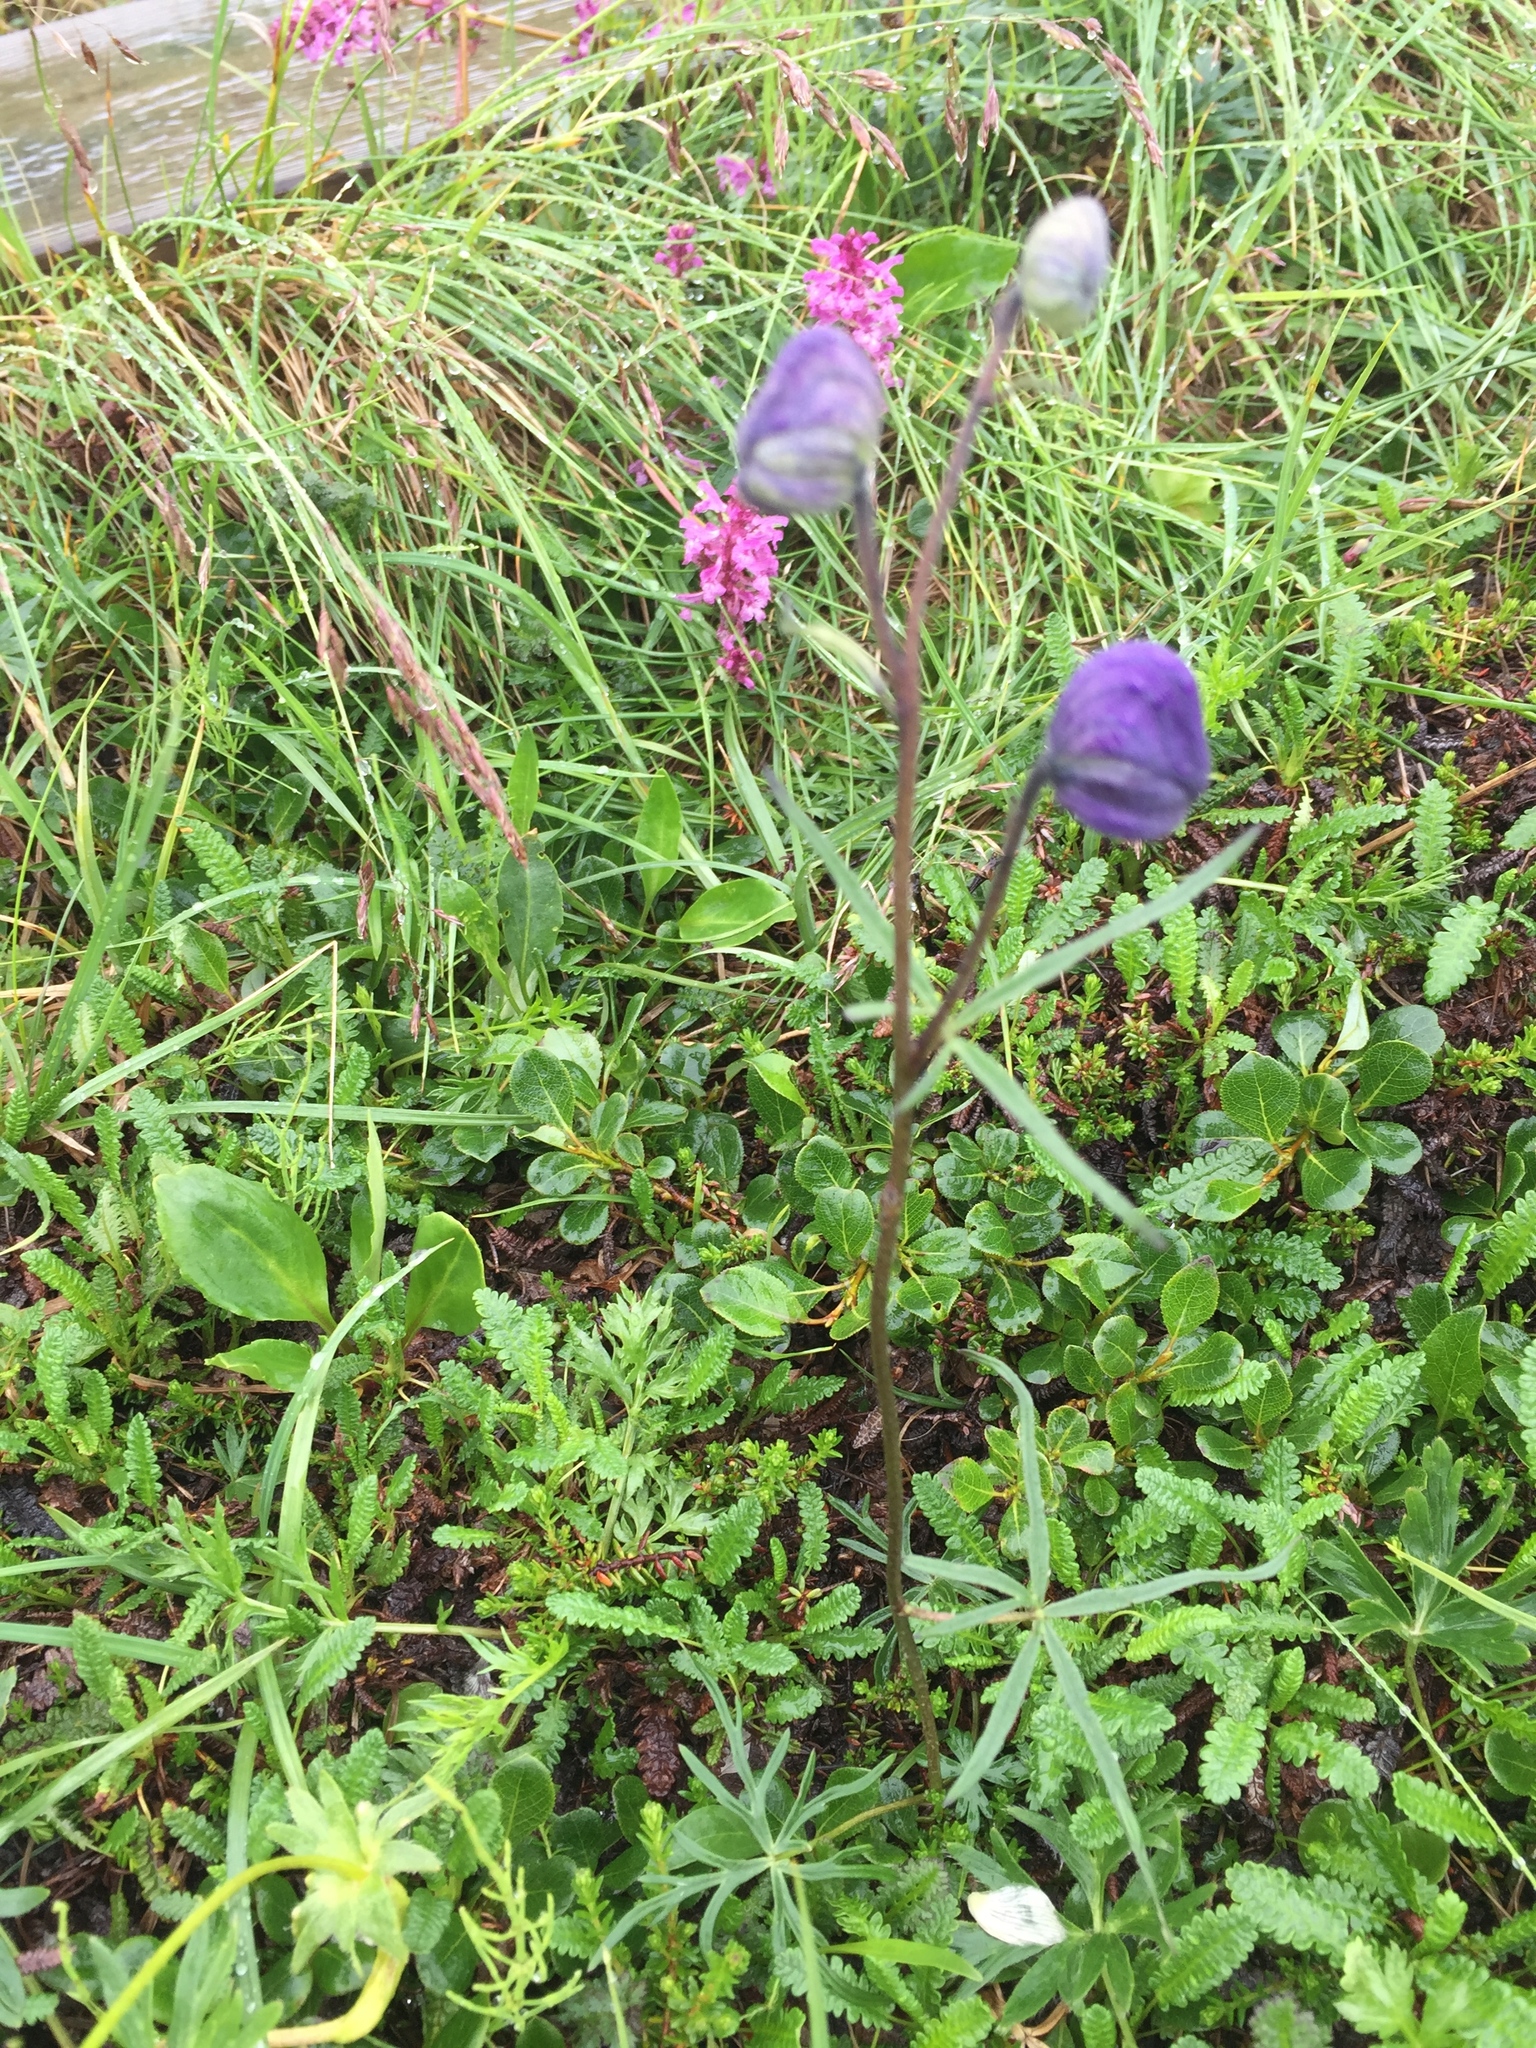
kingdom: Plantae
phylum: Tracheophyta
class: Magnoliopsida
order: Ranunculales
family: Ranunculaceae
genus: Aconitum
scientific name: Aconitum delphiniifolium
